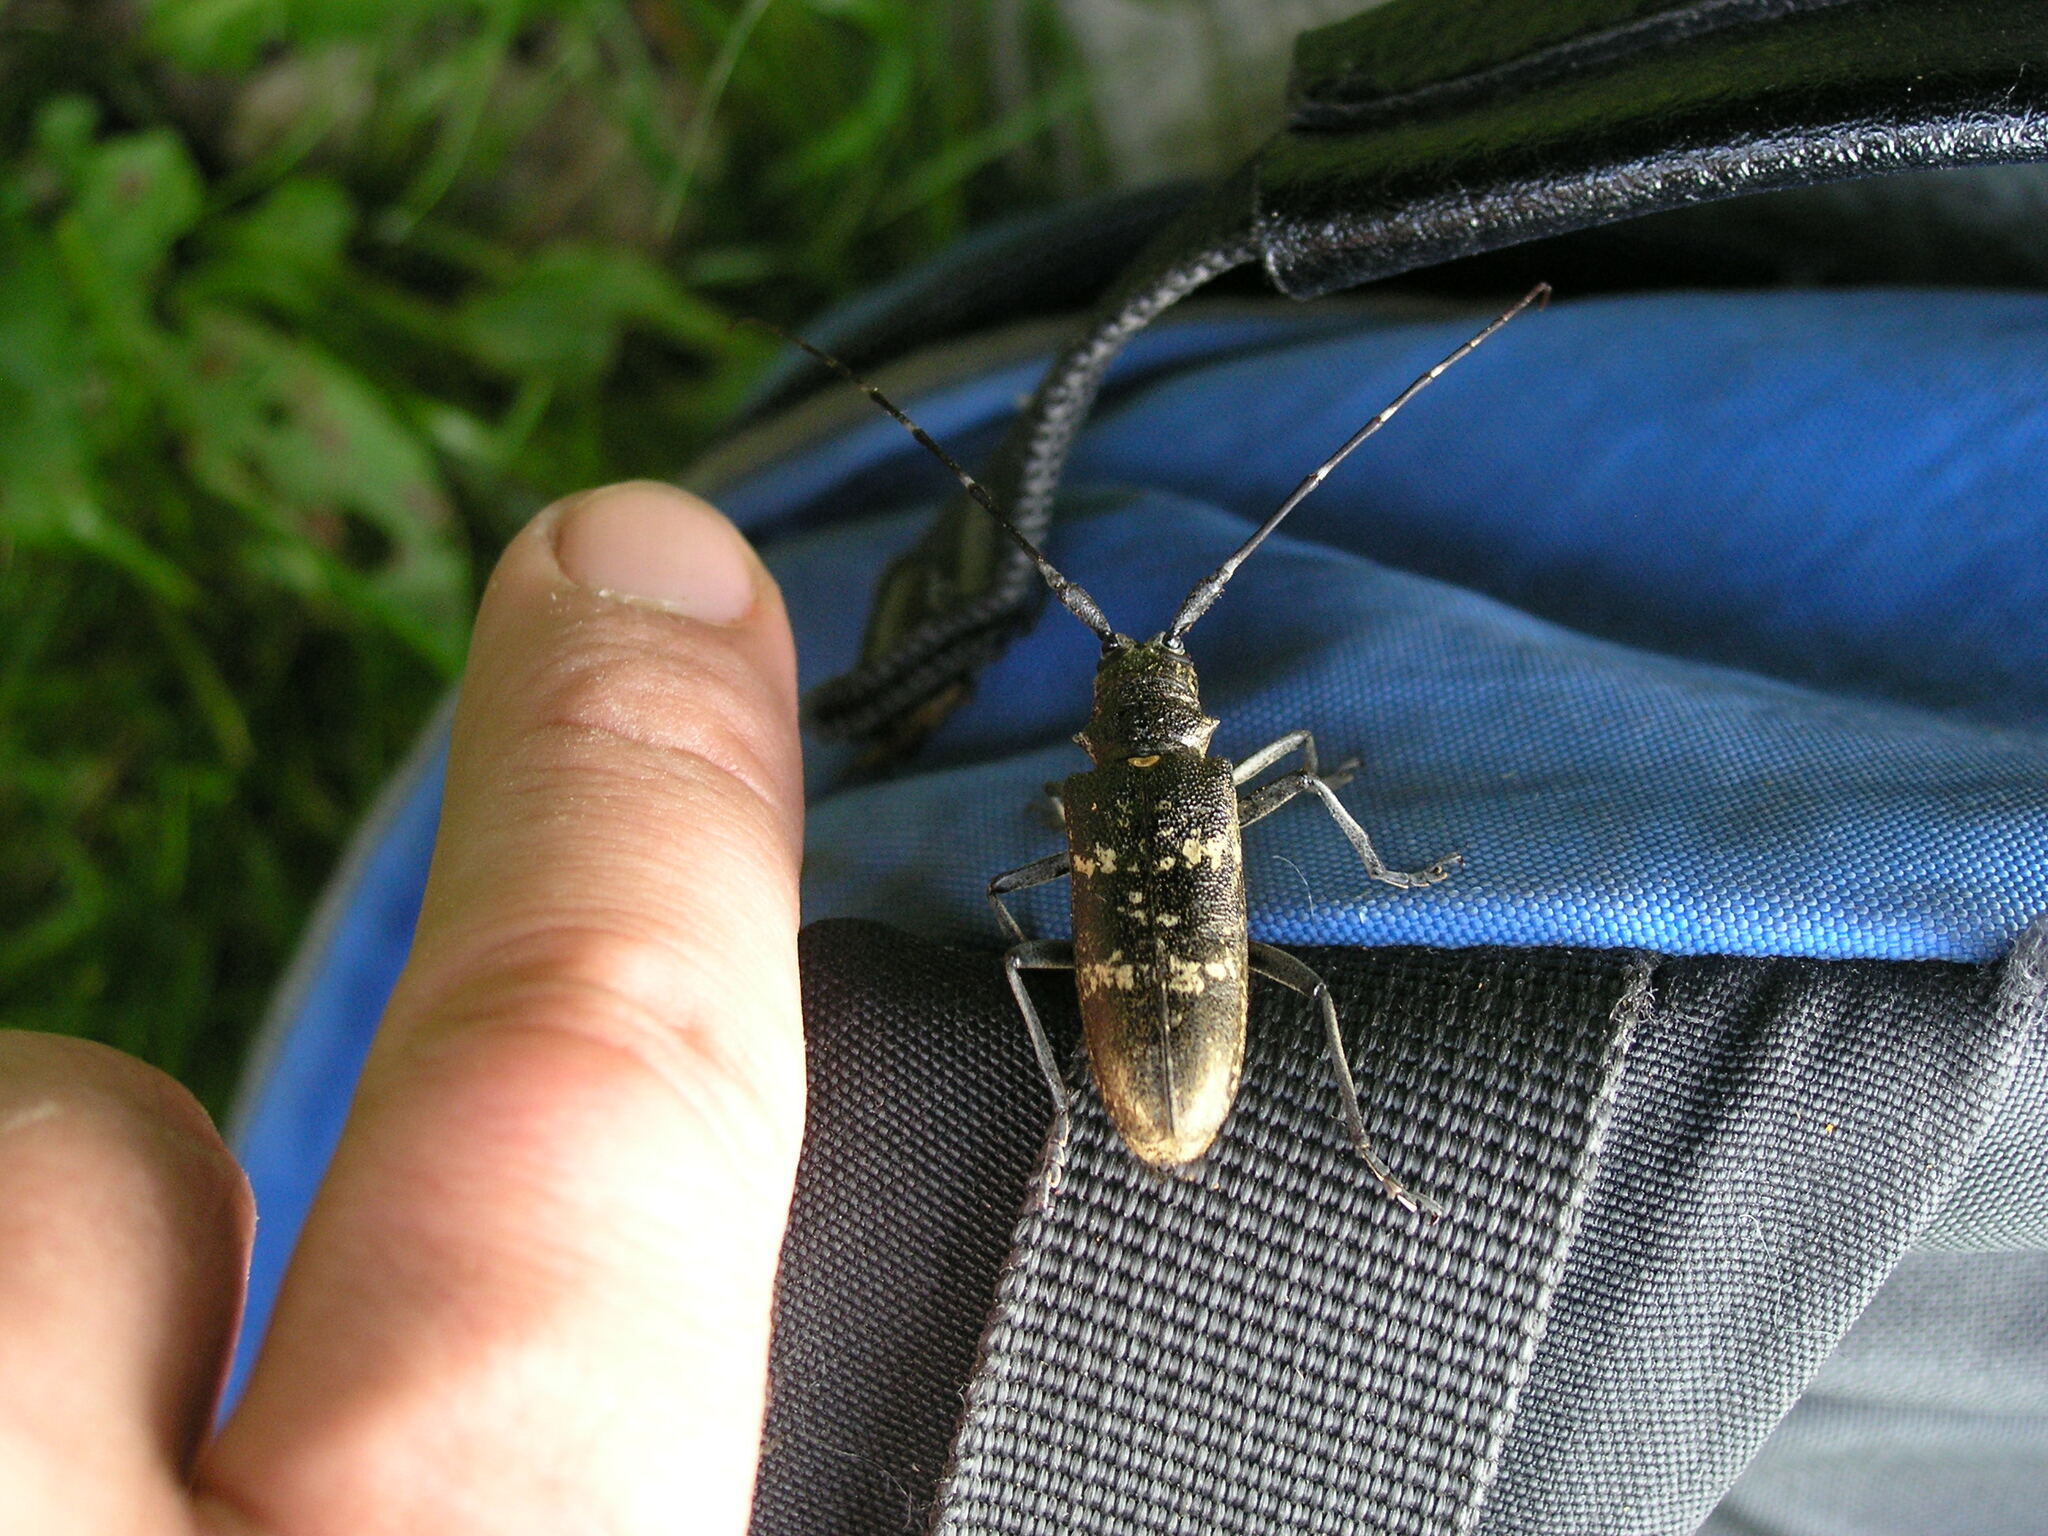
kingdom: Animalia
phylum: Arthropoda
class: Insecta
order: Coleoptera
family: Cerambycidae
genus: Monochamus
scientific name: Monochamus sartor
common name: Pine sawyer
